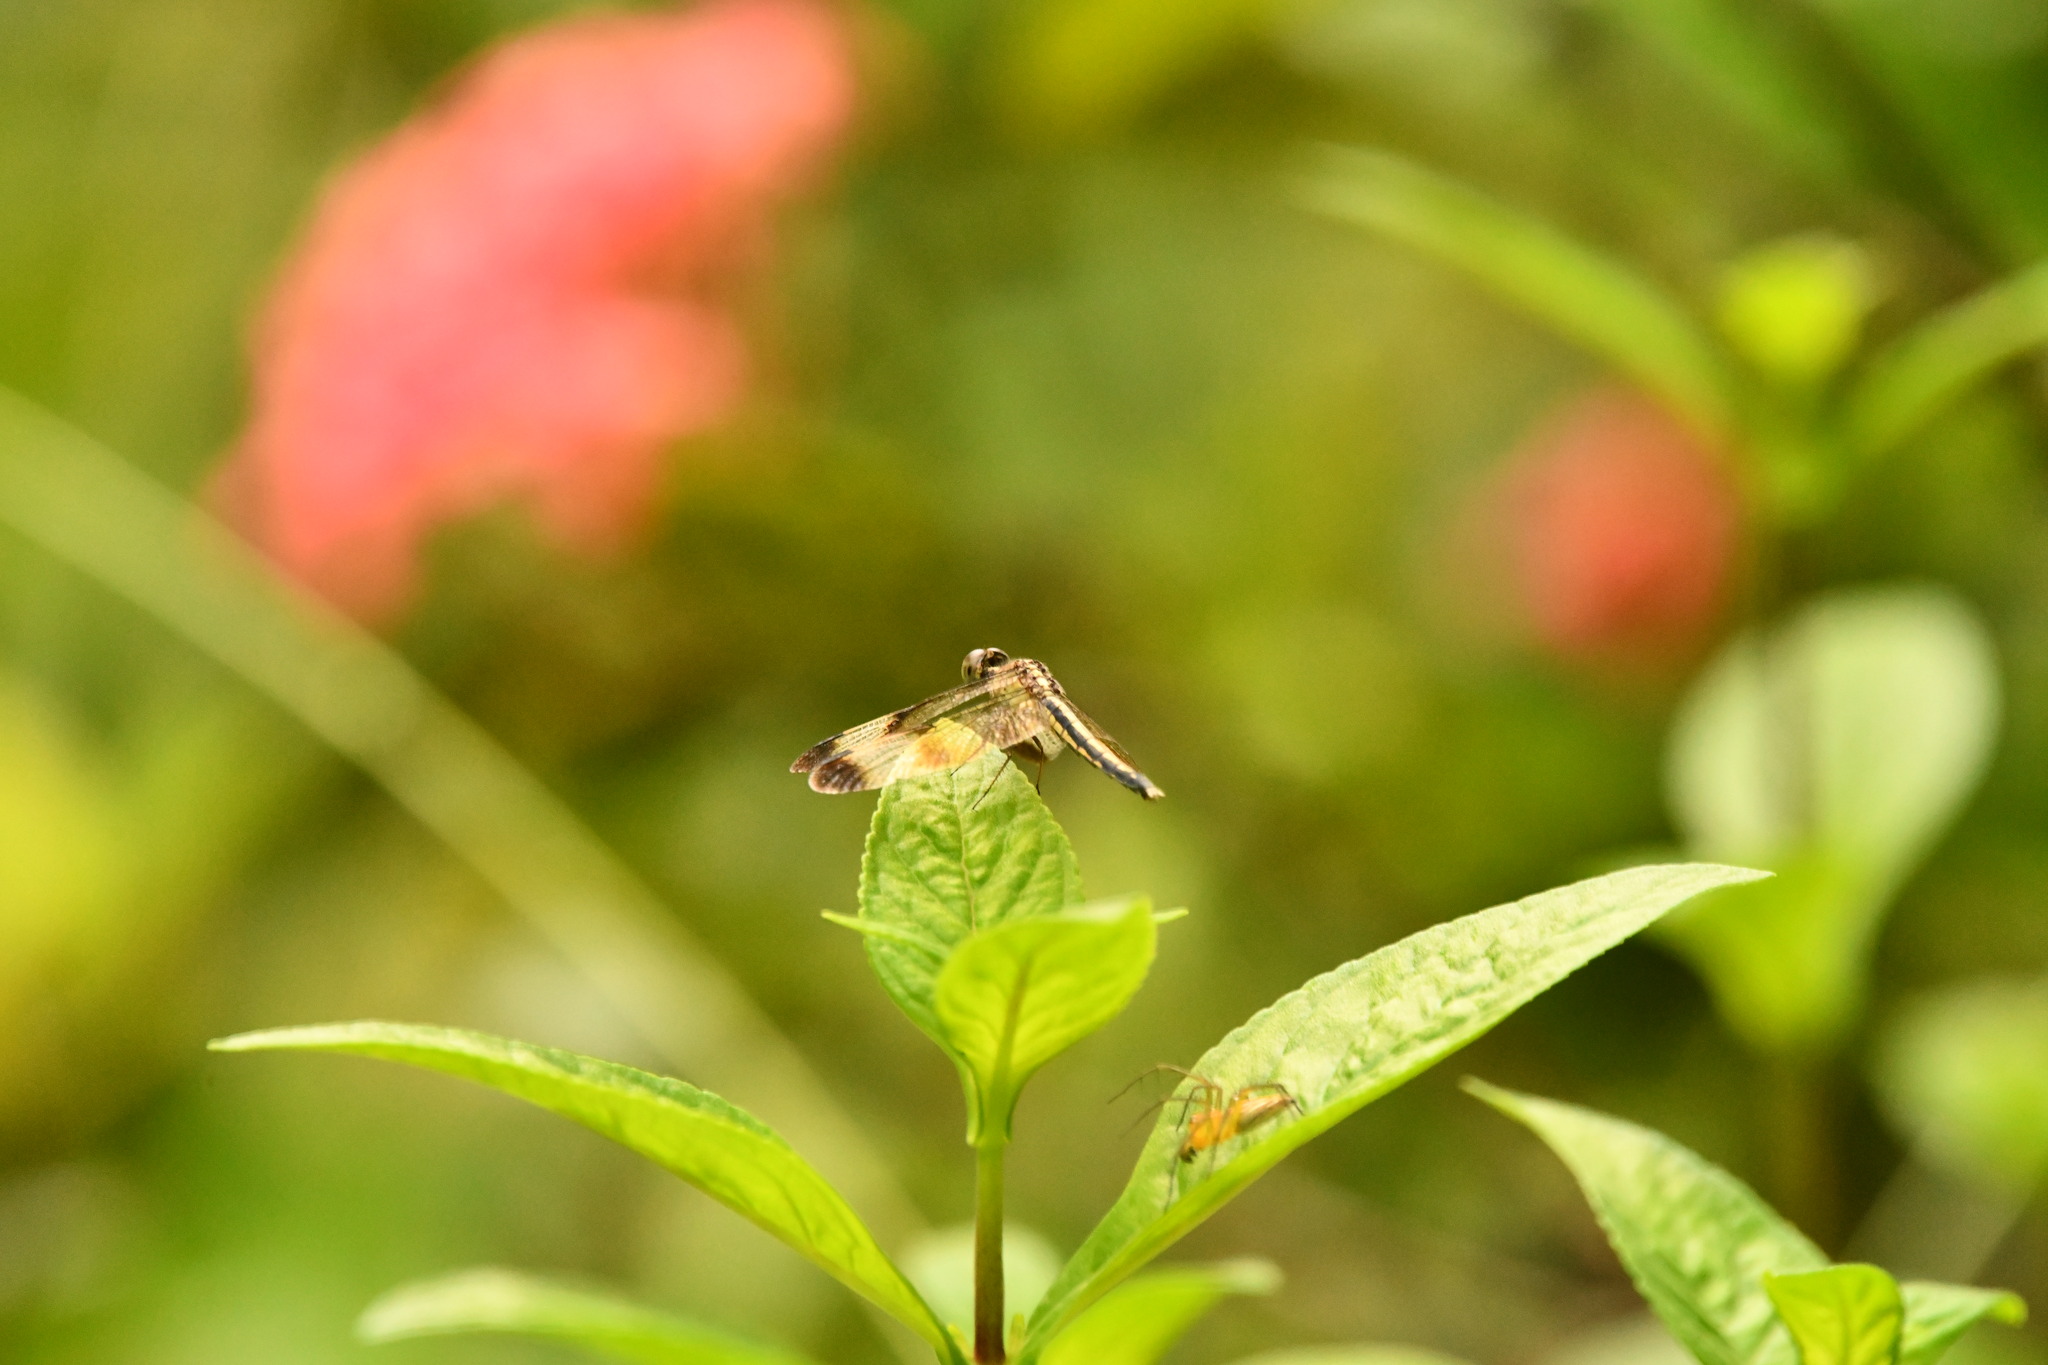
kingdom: Animalia
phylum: Arthropoda
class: Insecta
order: Odonata
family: Libellulidae
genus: Neurothemis
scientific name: Neurothemis tullia
